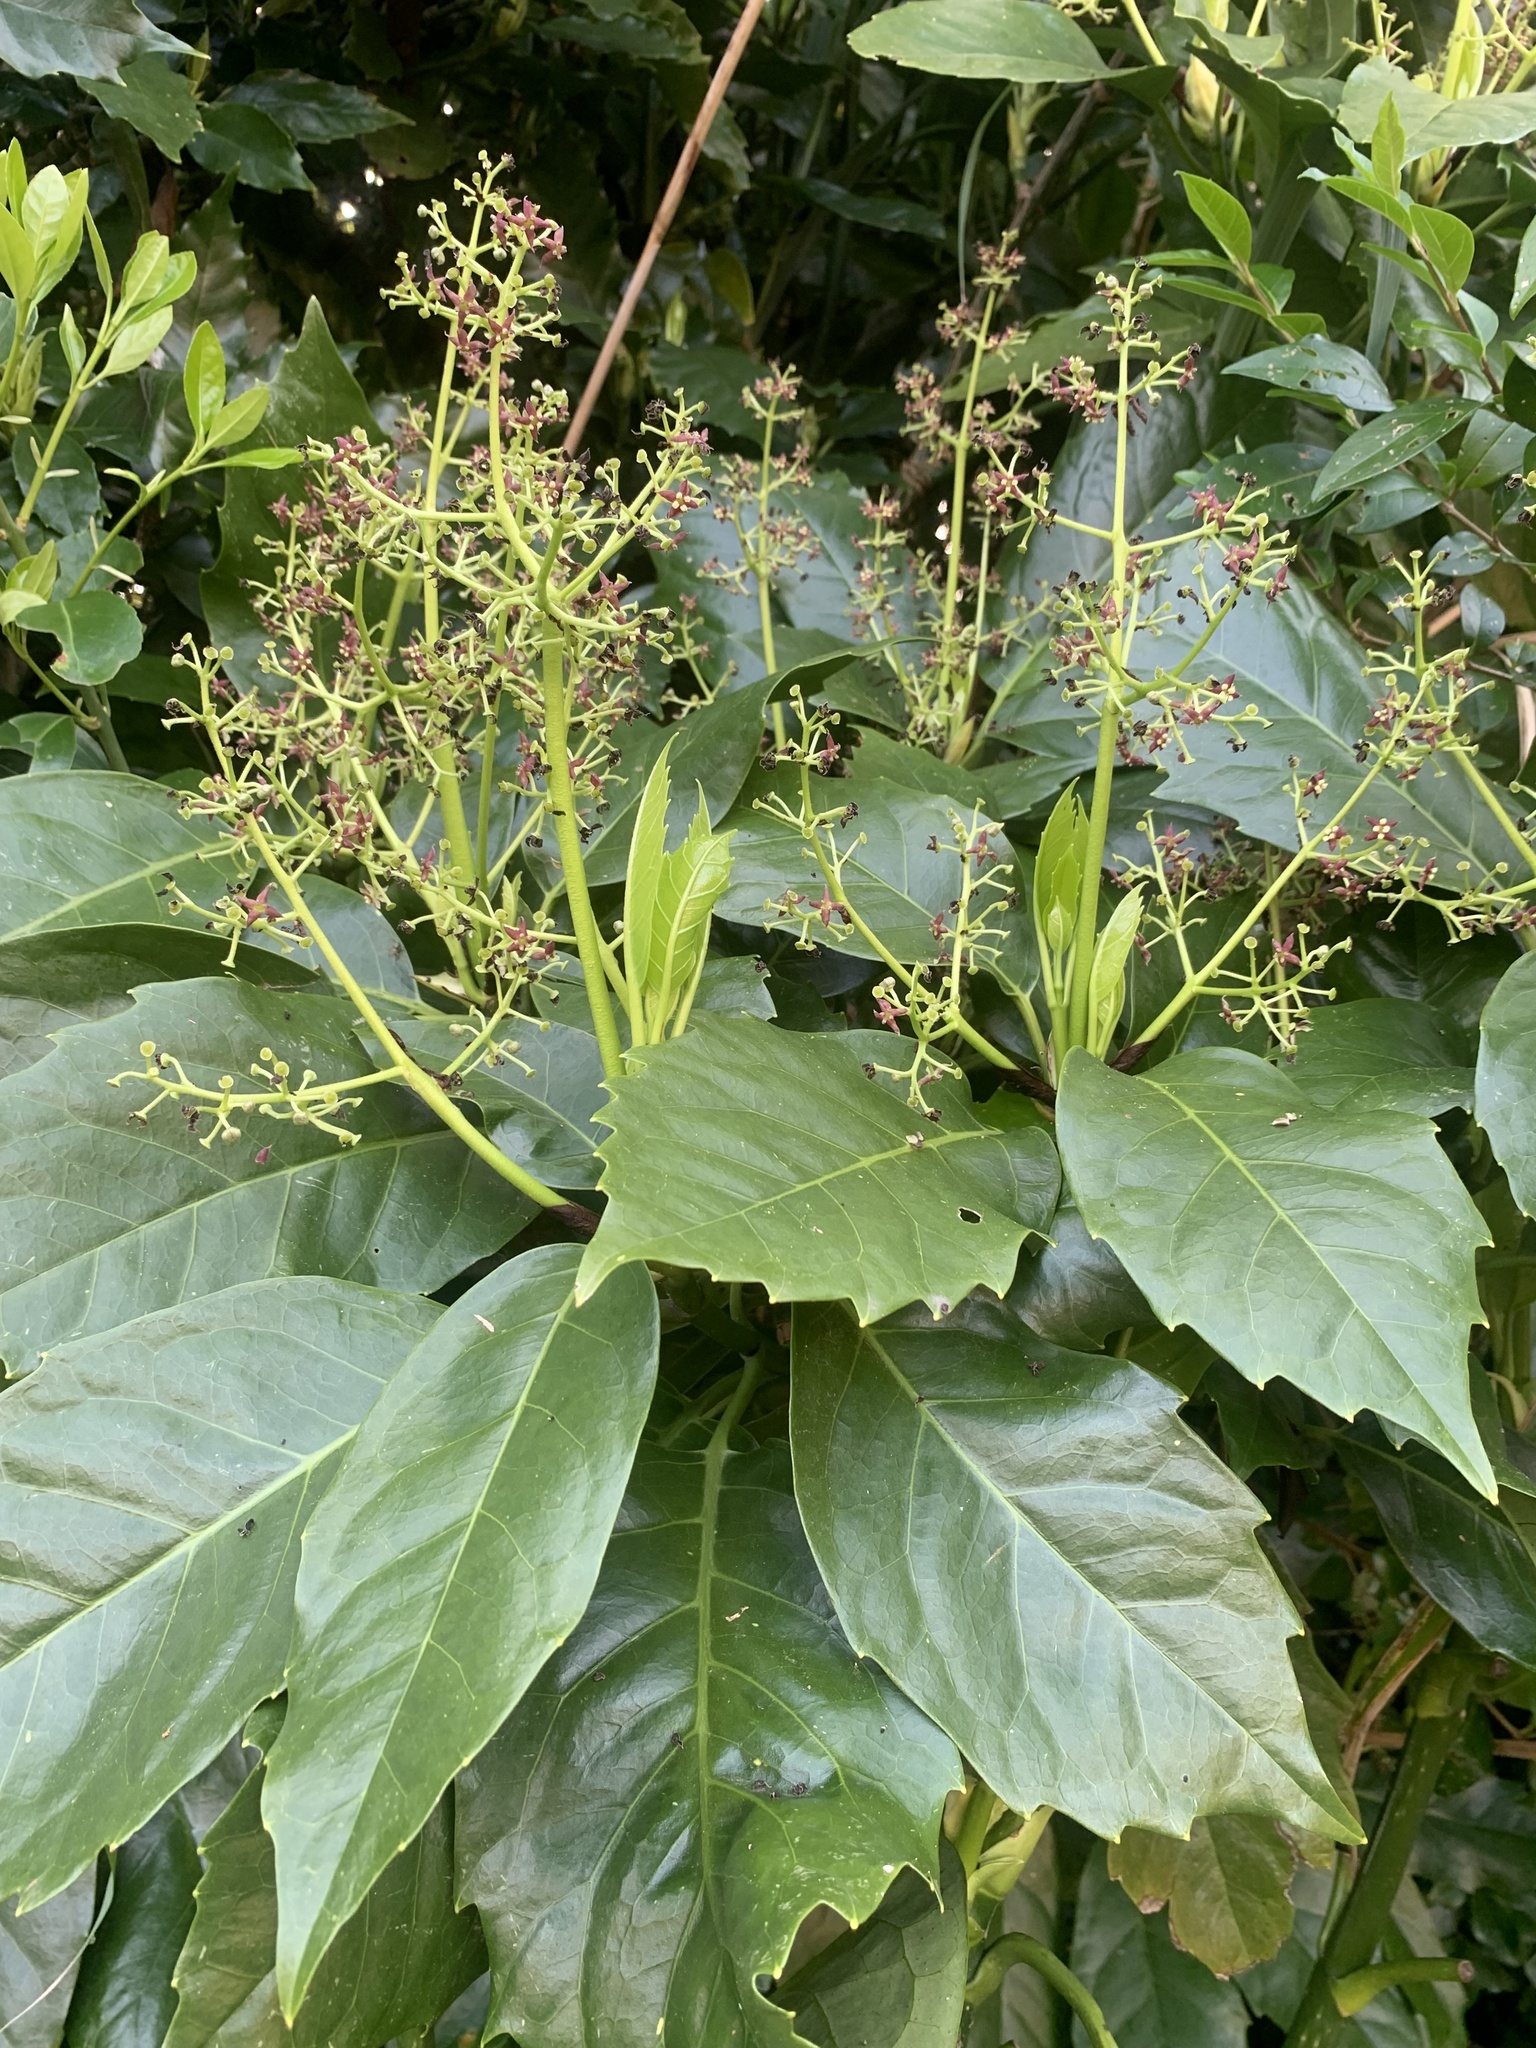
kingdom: Plantae
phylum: Tracheophyta
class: Magnoliopsida
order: Garryales
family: Garryaceae
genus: Aucuba
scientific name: Aucuba japonica
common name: Spotted-laurel
